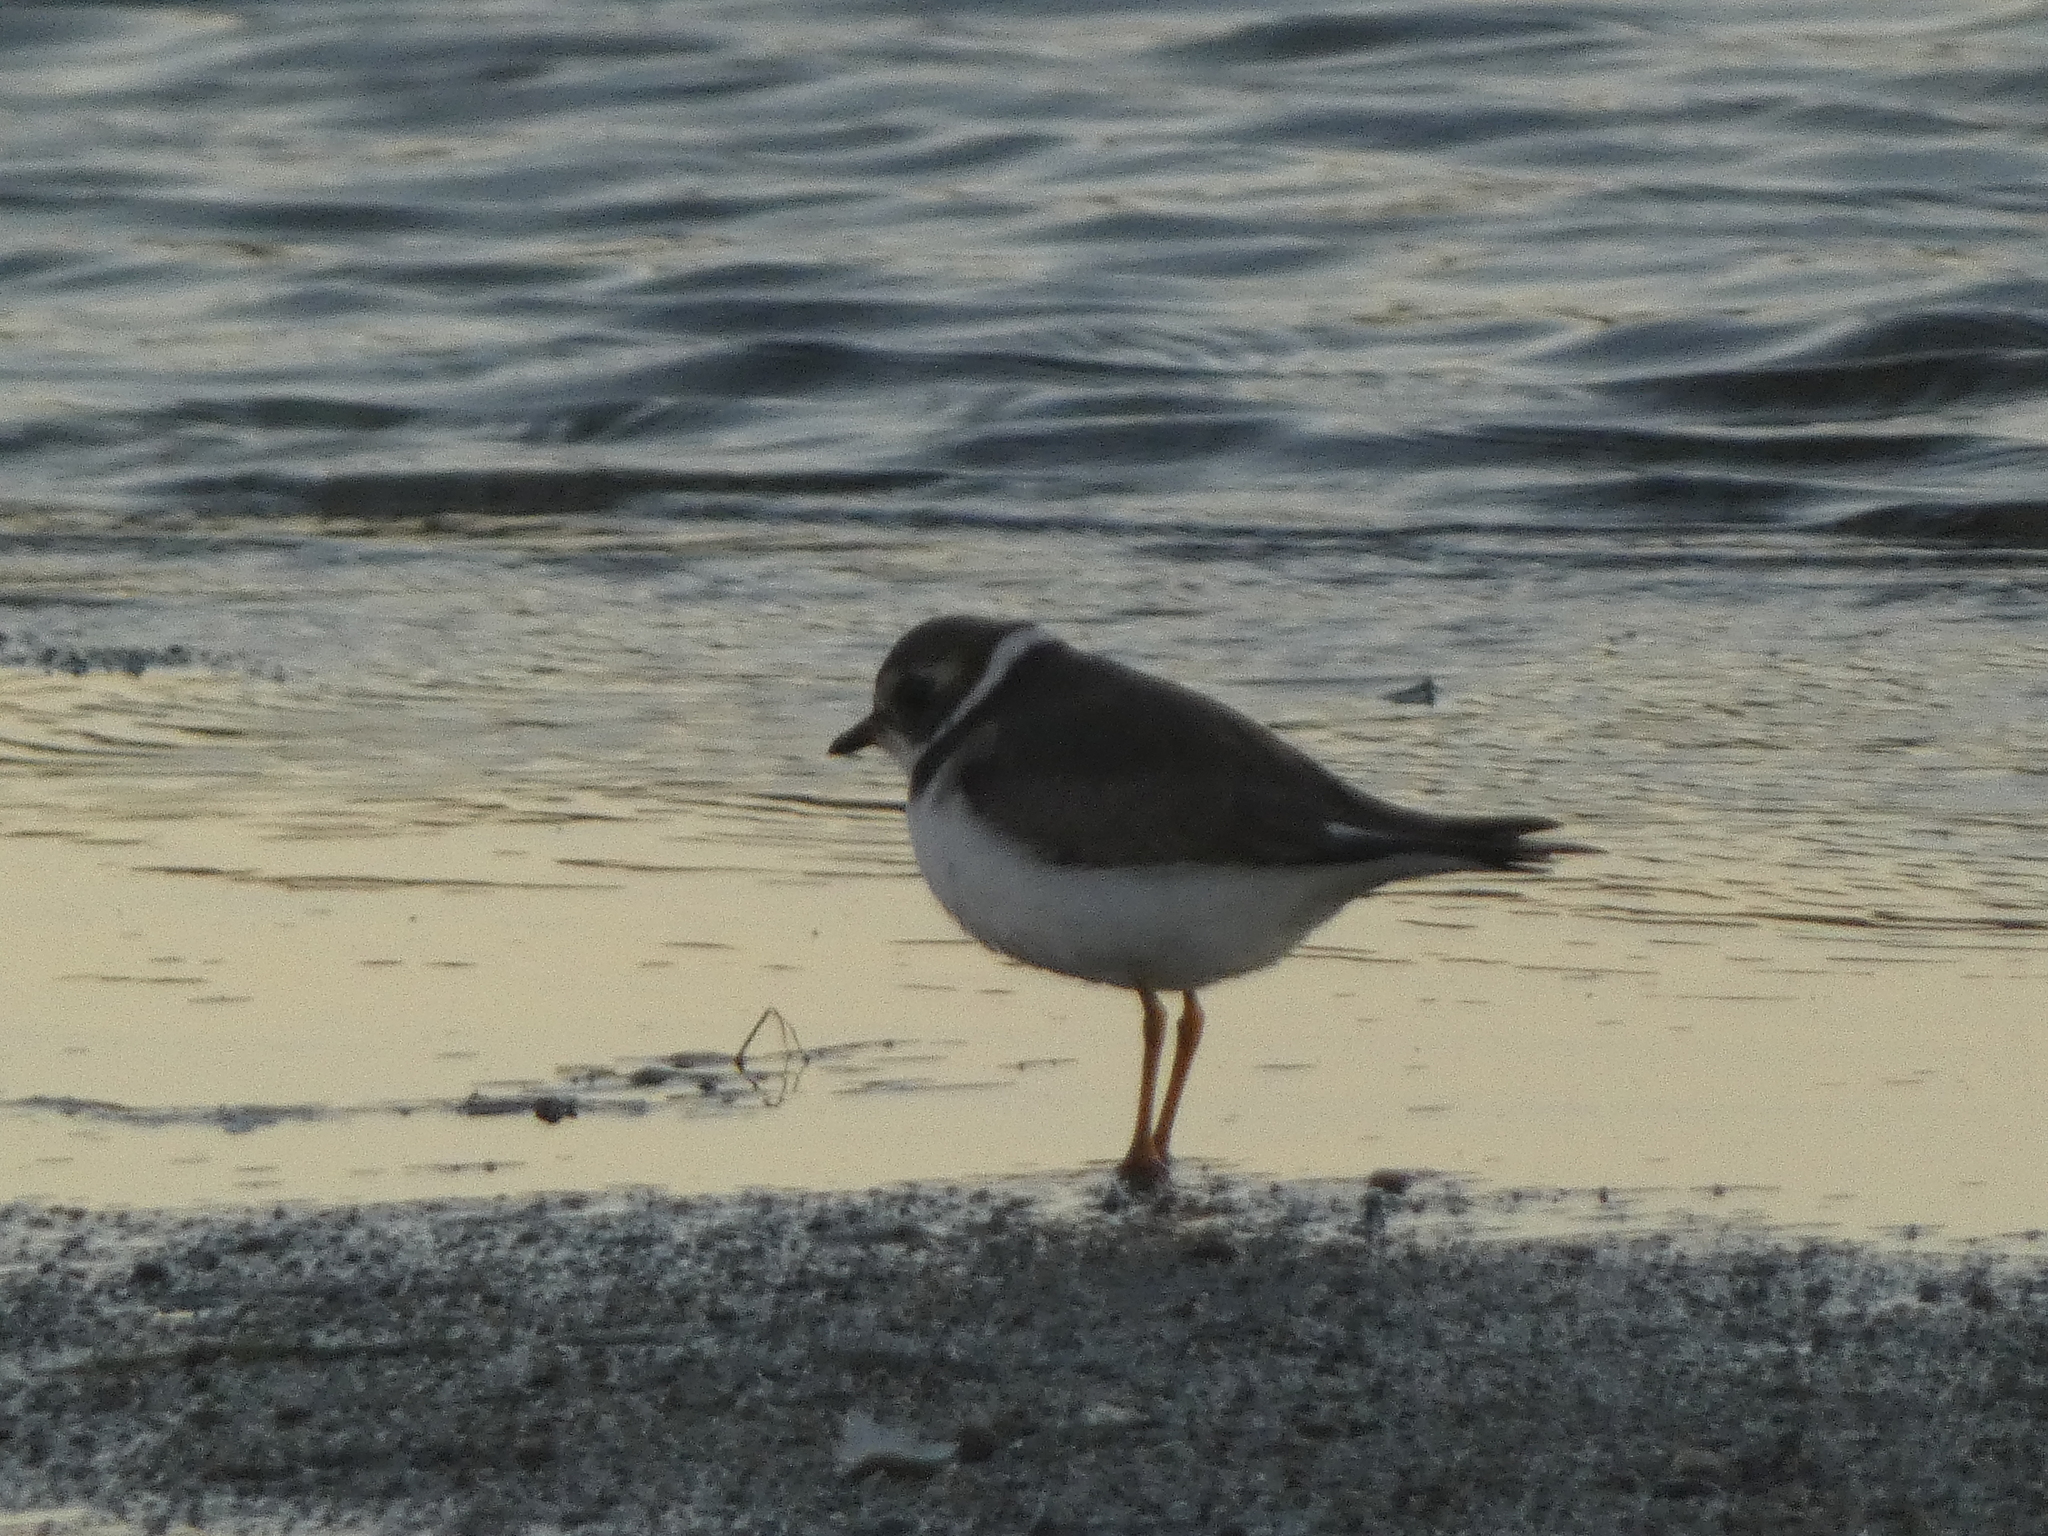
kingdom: Animalia
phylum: Chordata
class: Aves
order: Charadriiformes
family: Charadriidae
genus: Charadrius
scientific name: Charadrius semipalmatus
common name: Semipalmated plover
